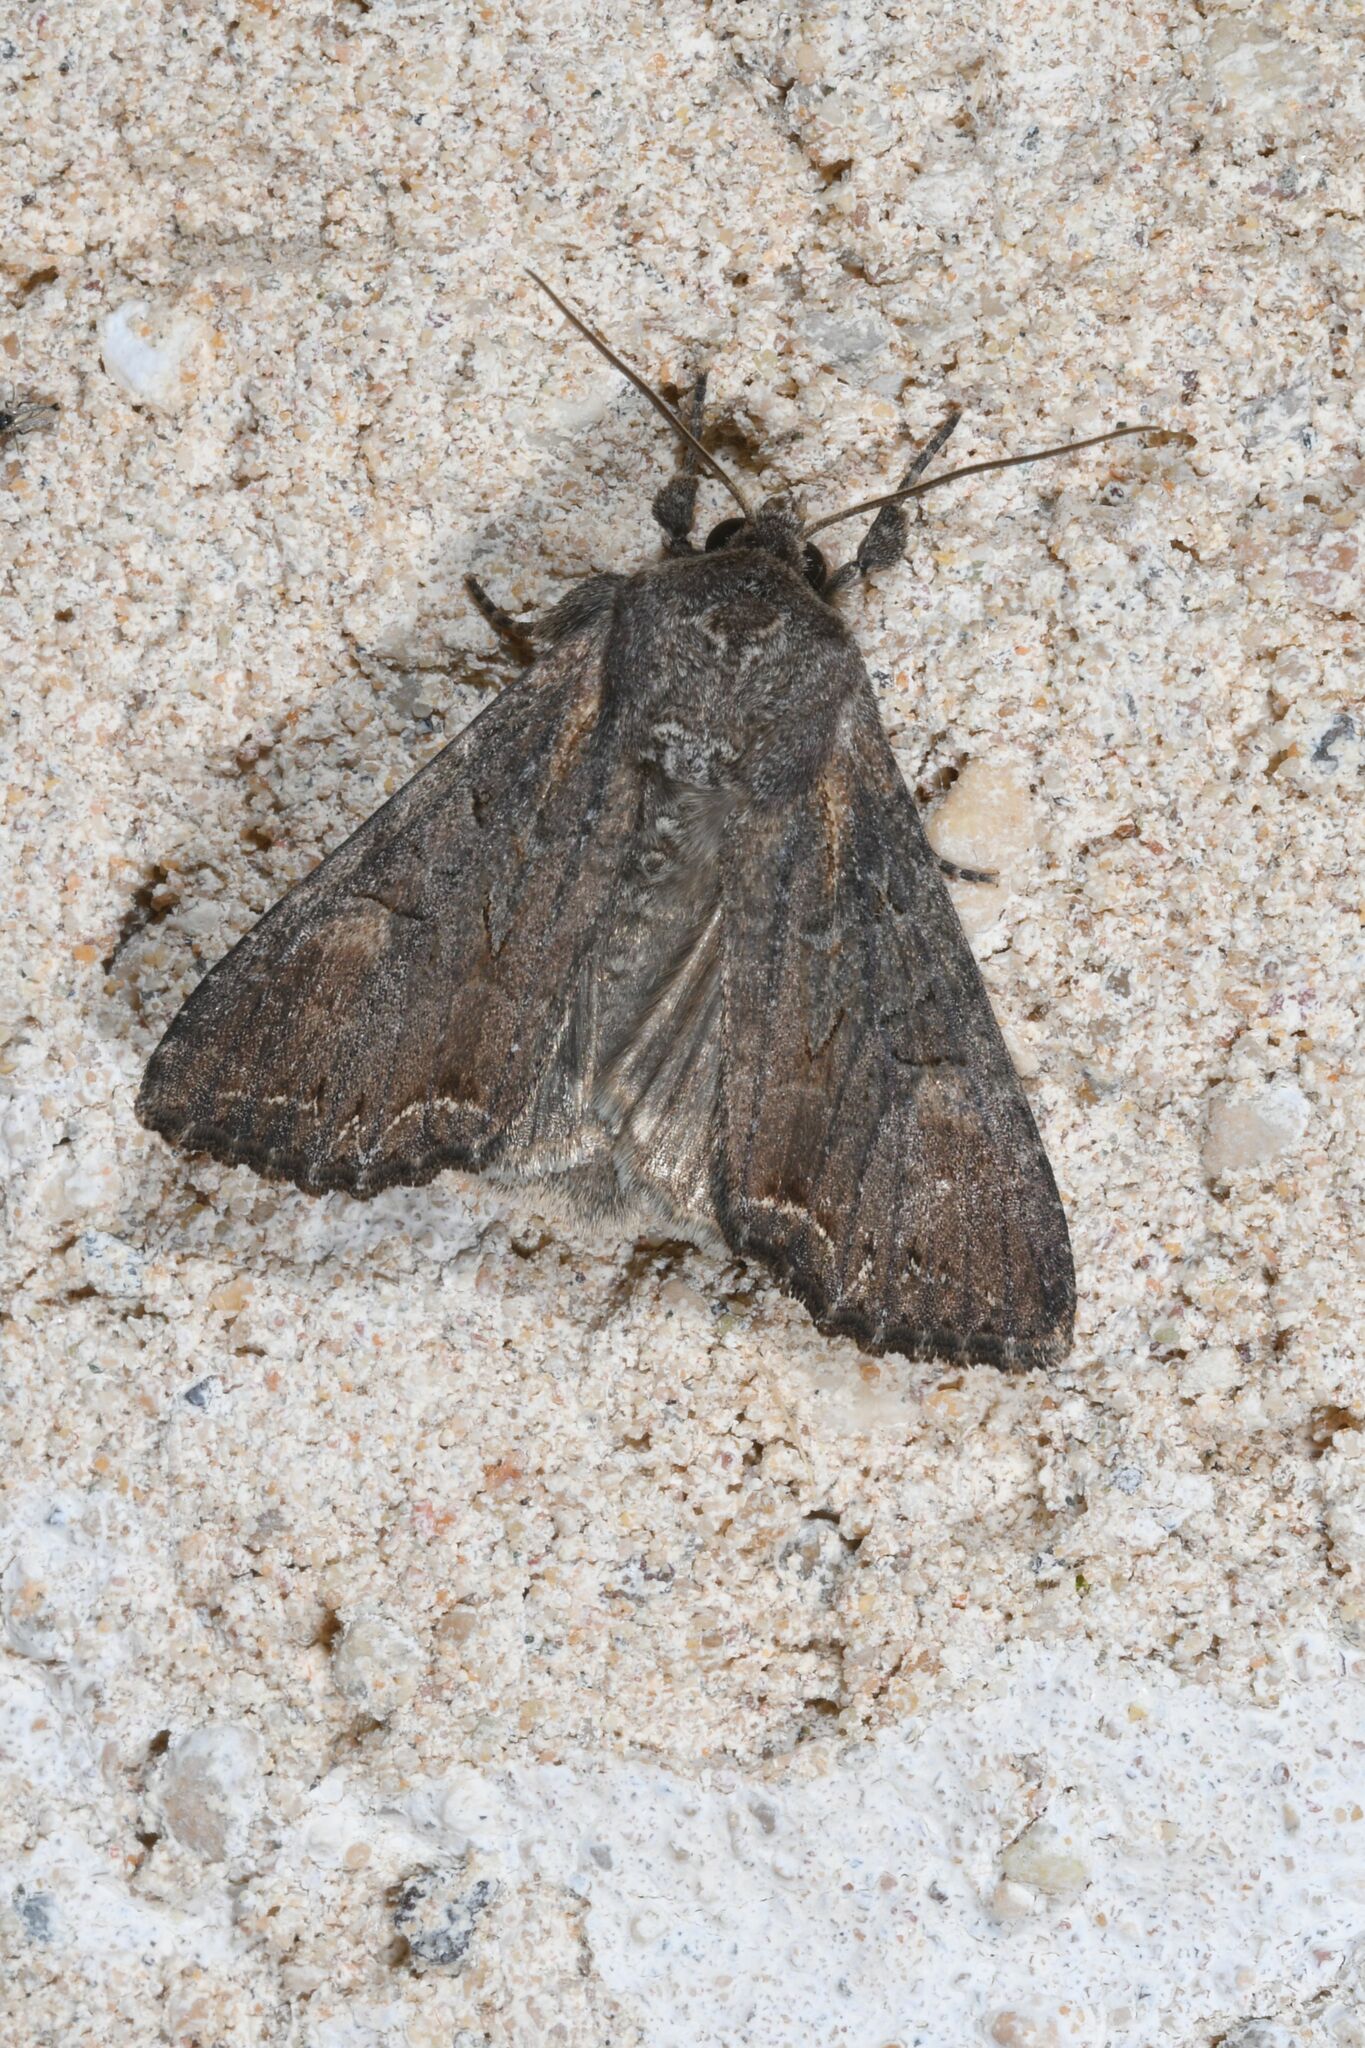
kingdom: Animalia
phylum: Arthropoda
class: Insecta
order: Lepidoptera
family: Noctuidae
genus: Lacanobia
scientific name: Lacanobia suasa
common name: Dog's tooth
